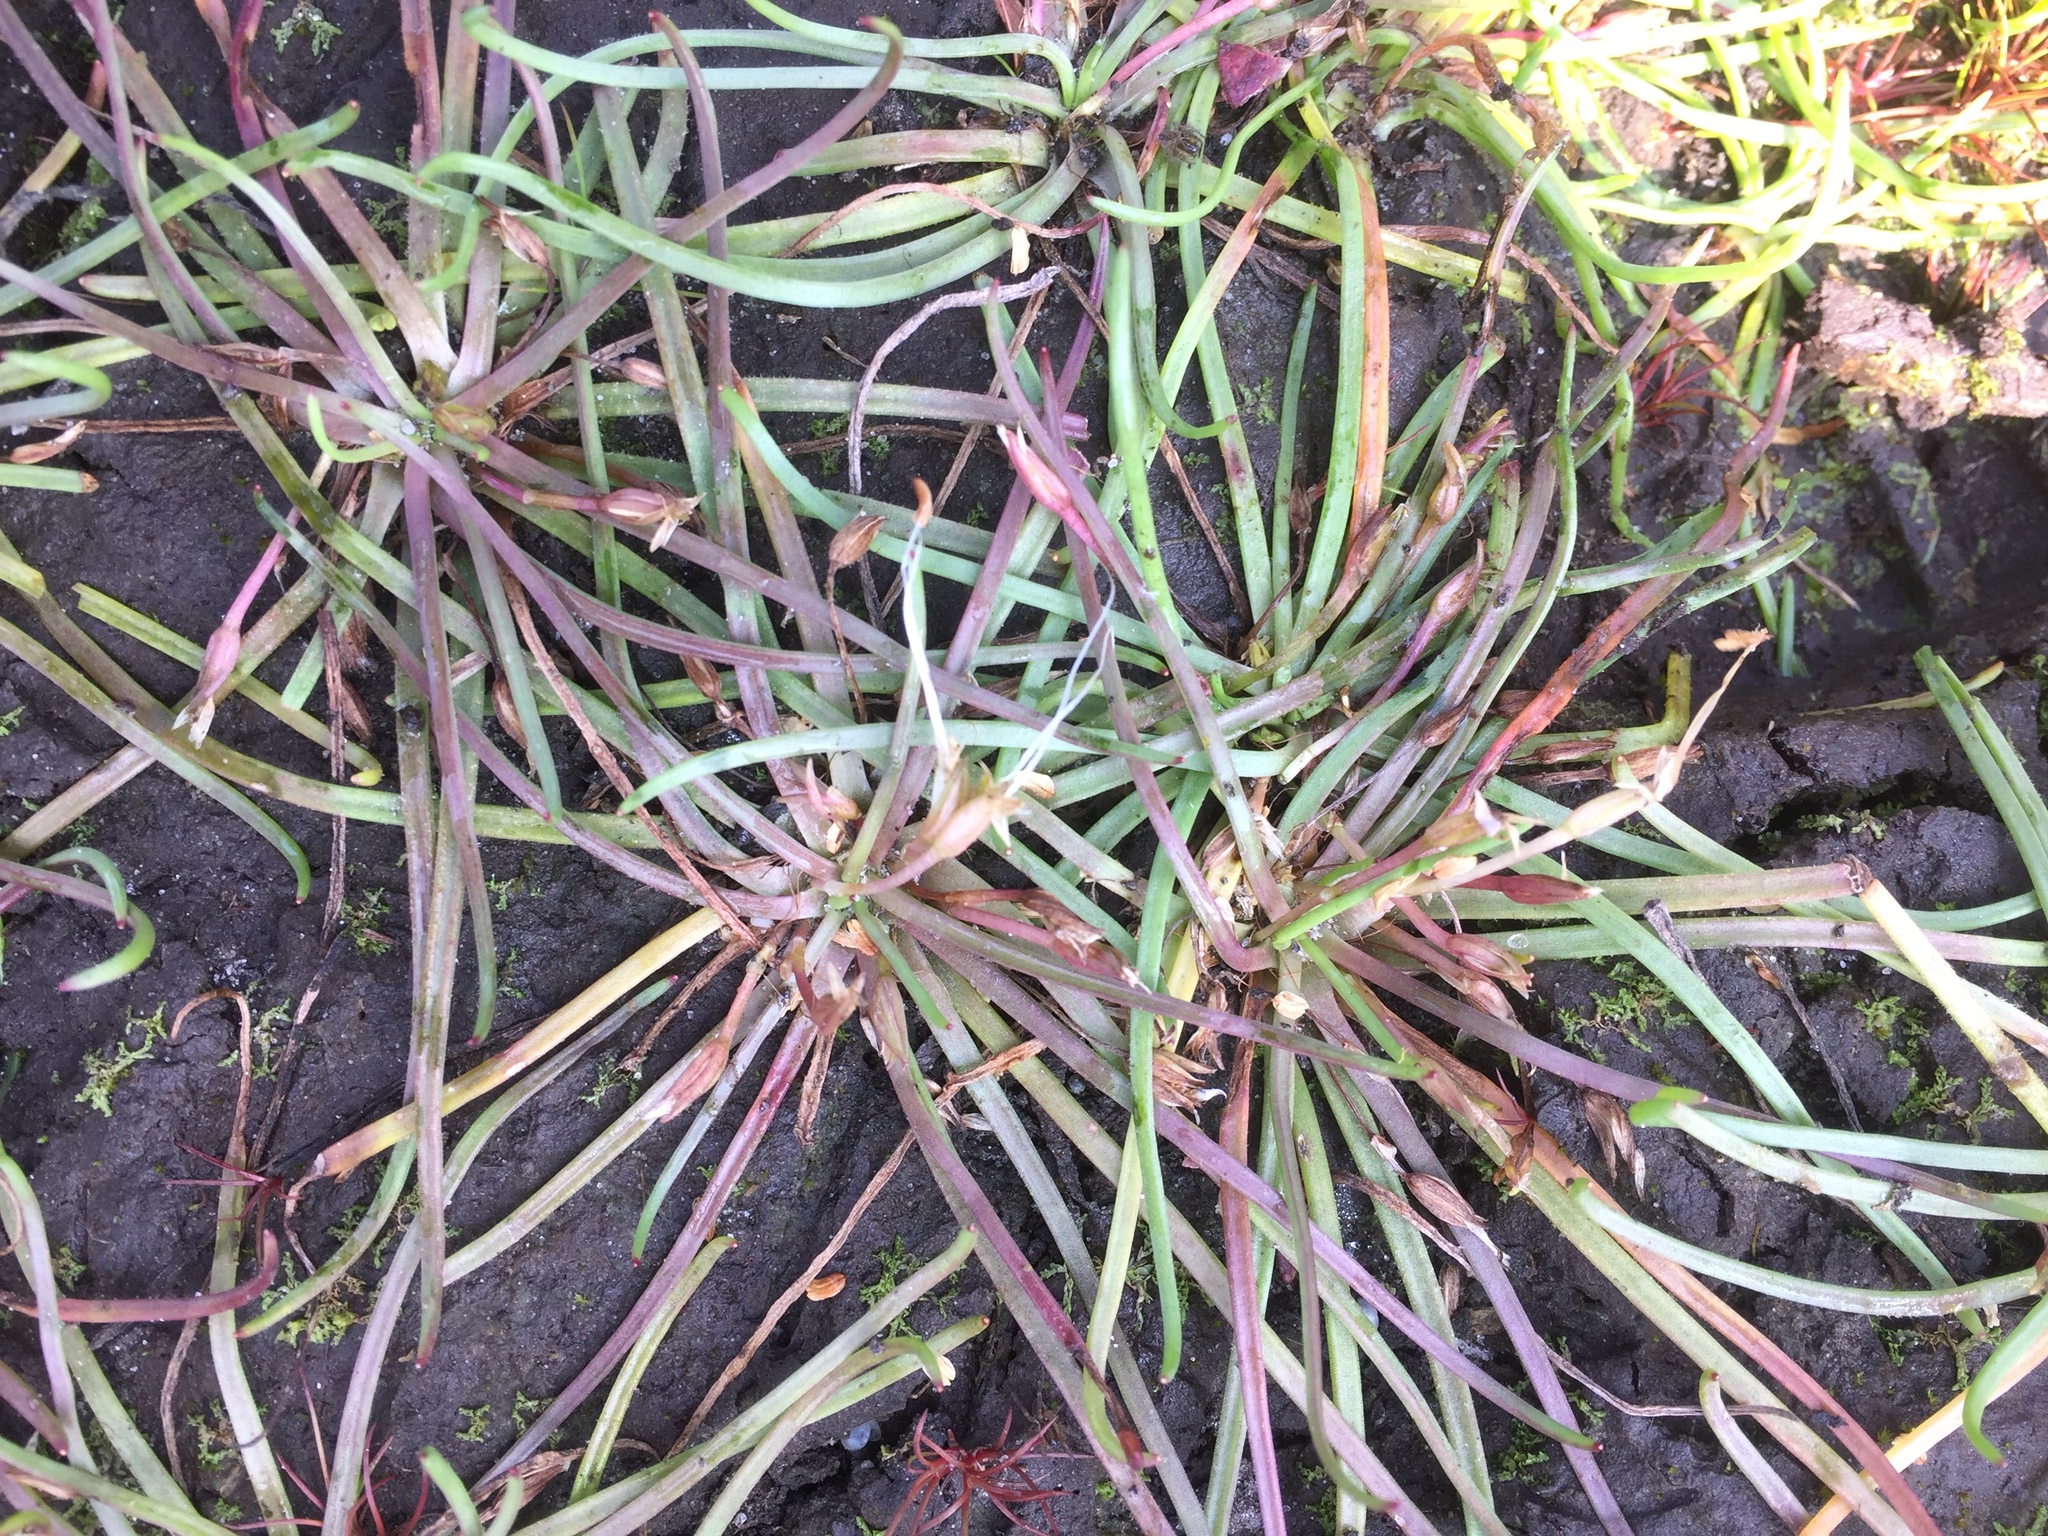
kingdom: Plantae
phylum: Tracheophyta
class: Magnoliopsida
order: Lamiales
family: Plantaginaceae
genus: Littorella
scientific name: Littorella uniflora
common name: Shoreweed
